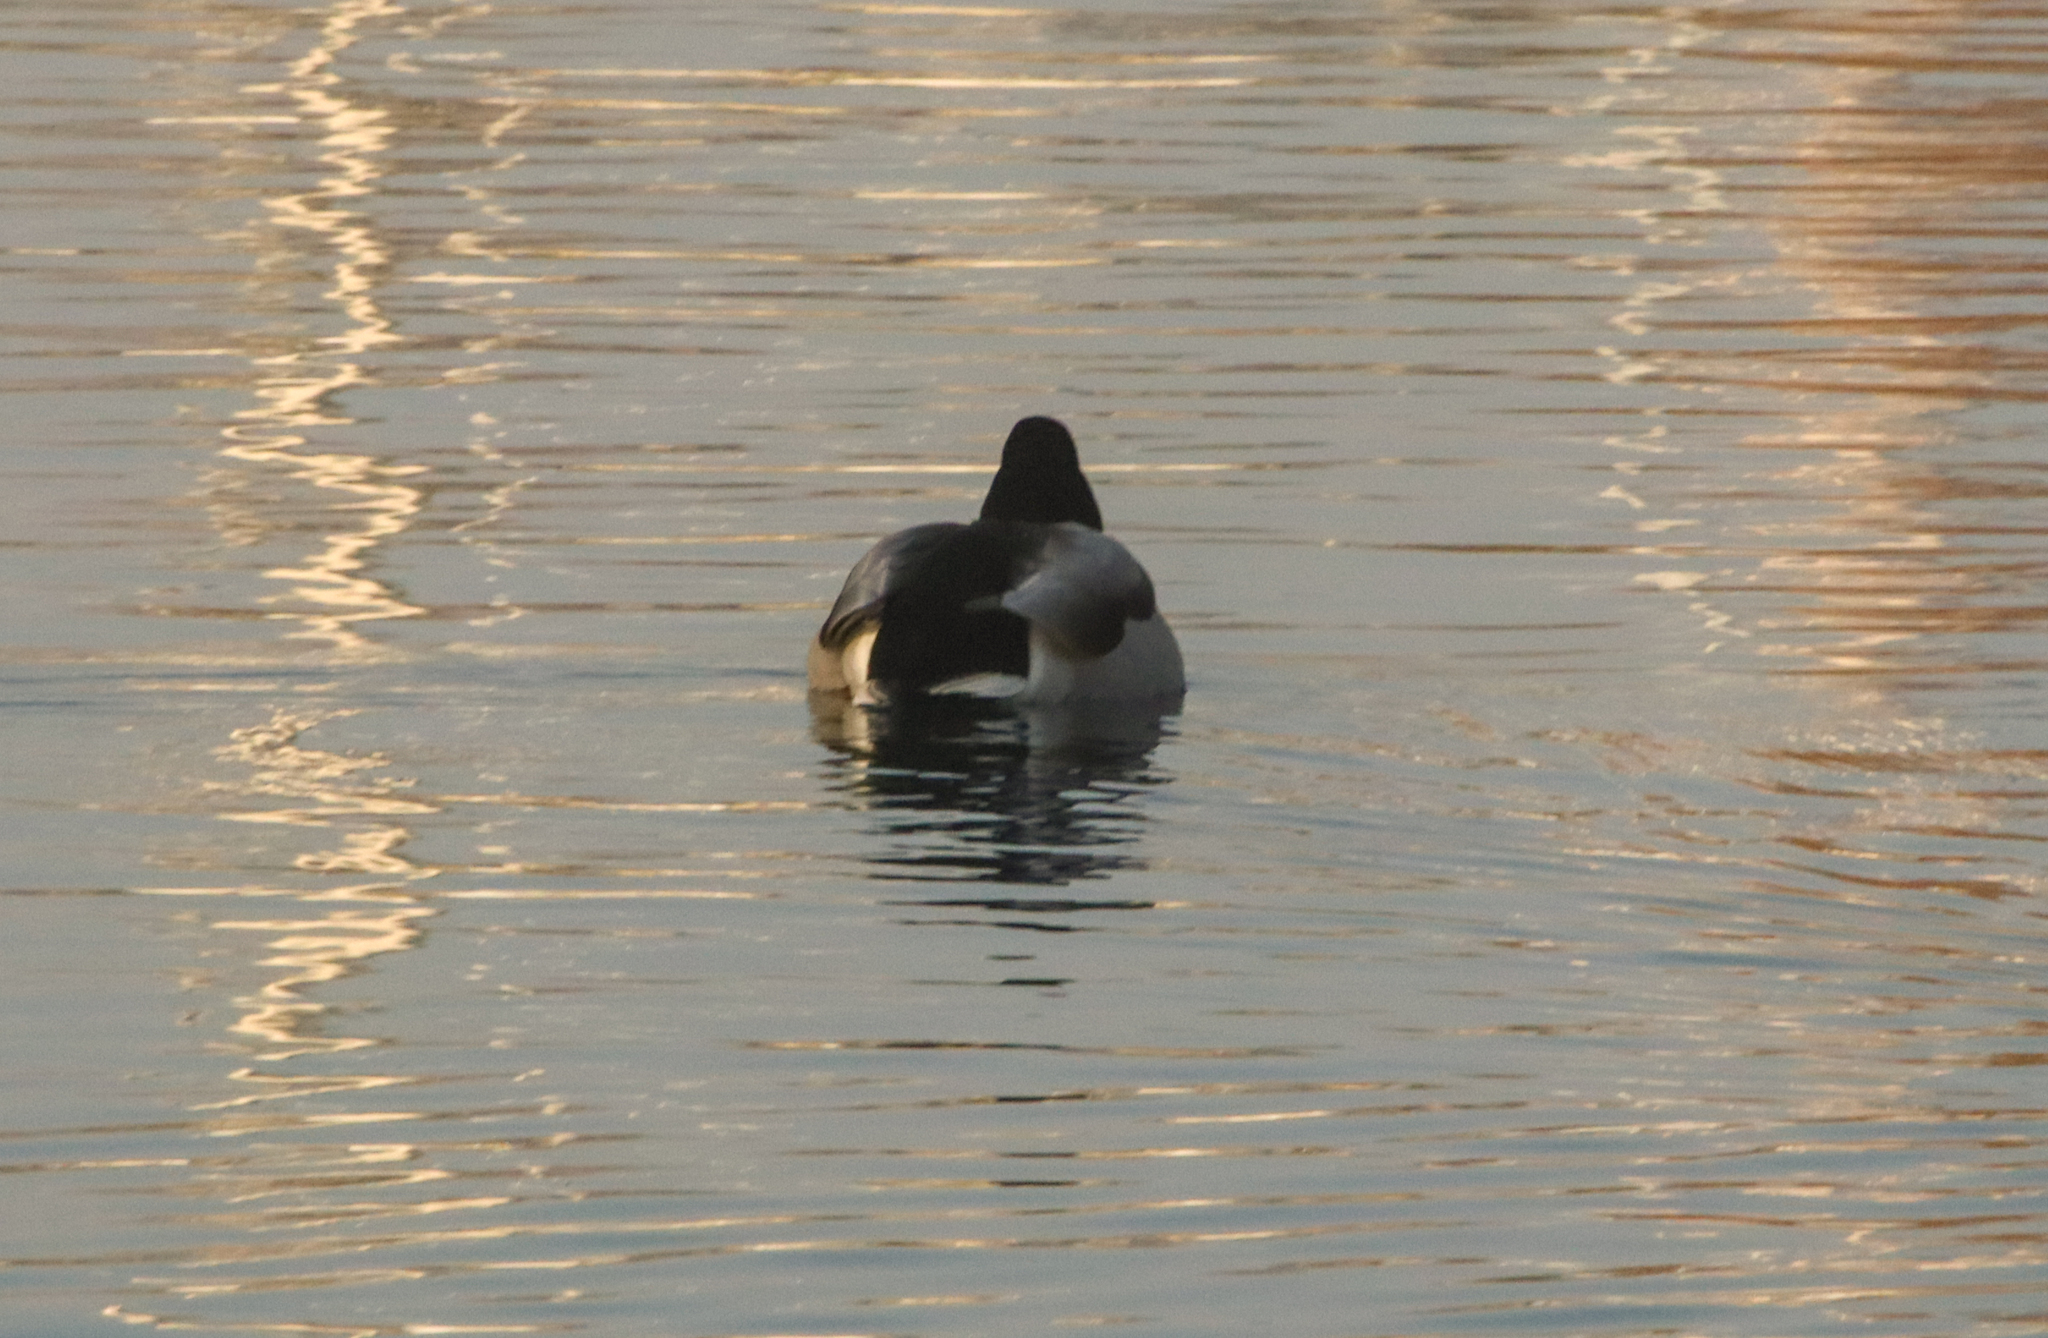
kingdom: Animalia
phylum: Chordata
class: Aves
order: Anseriformes
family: Anatidae
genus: Anas
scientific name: Anas platyrhynchos
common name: Mallard
